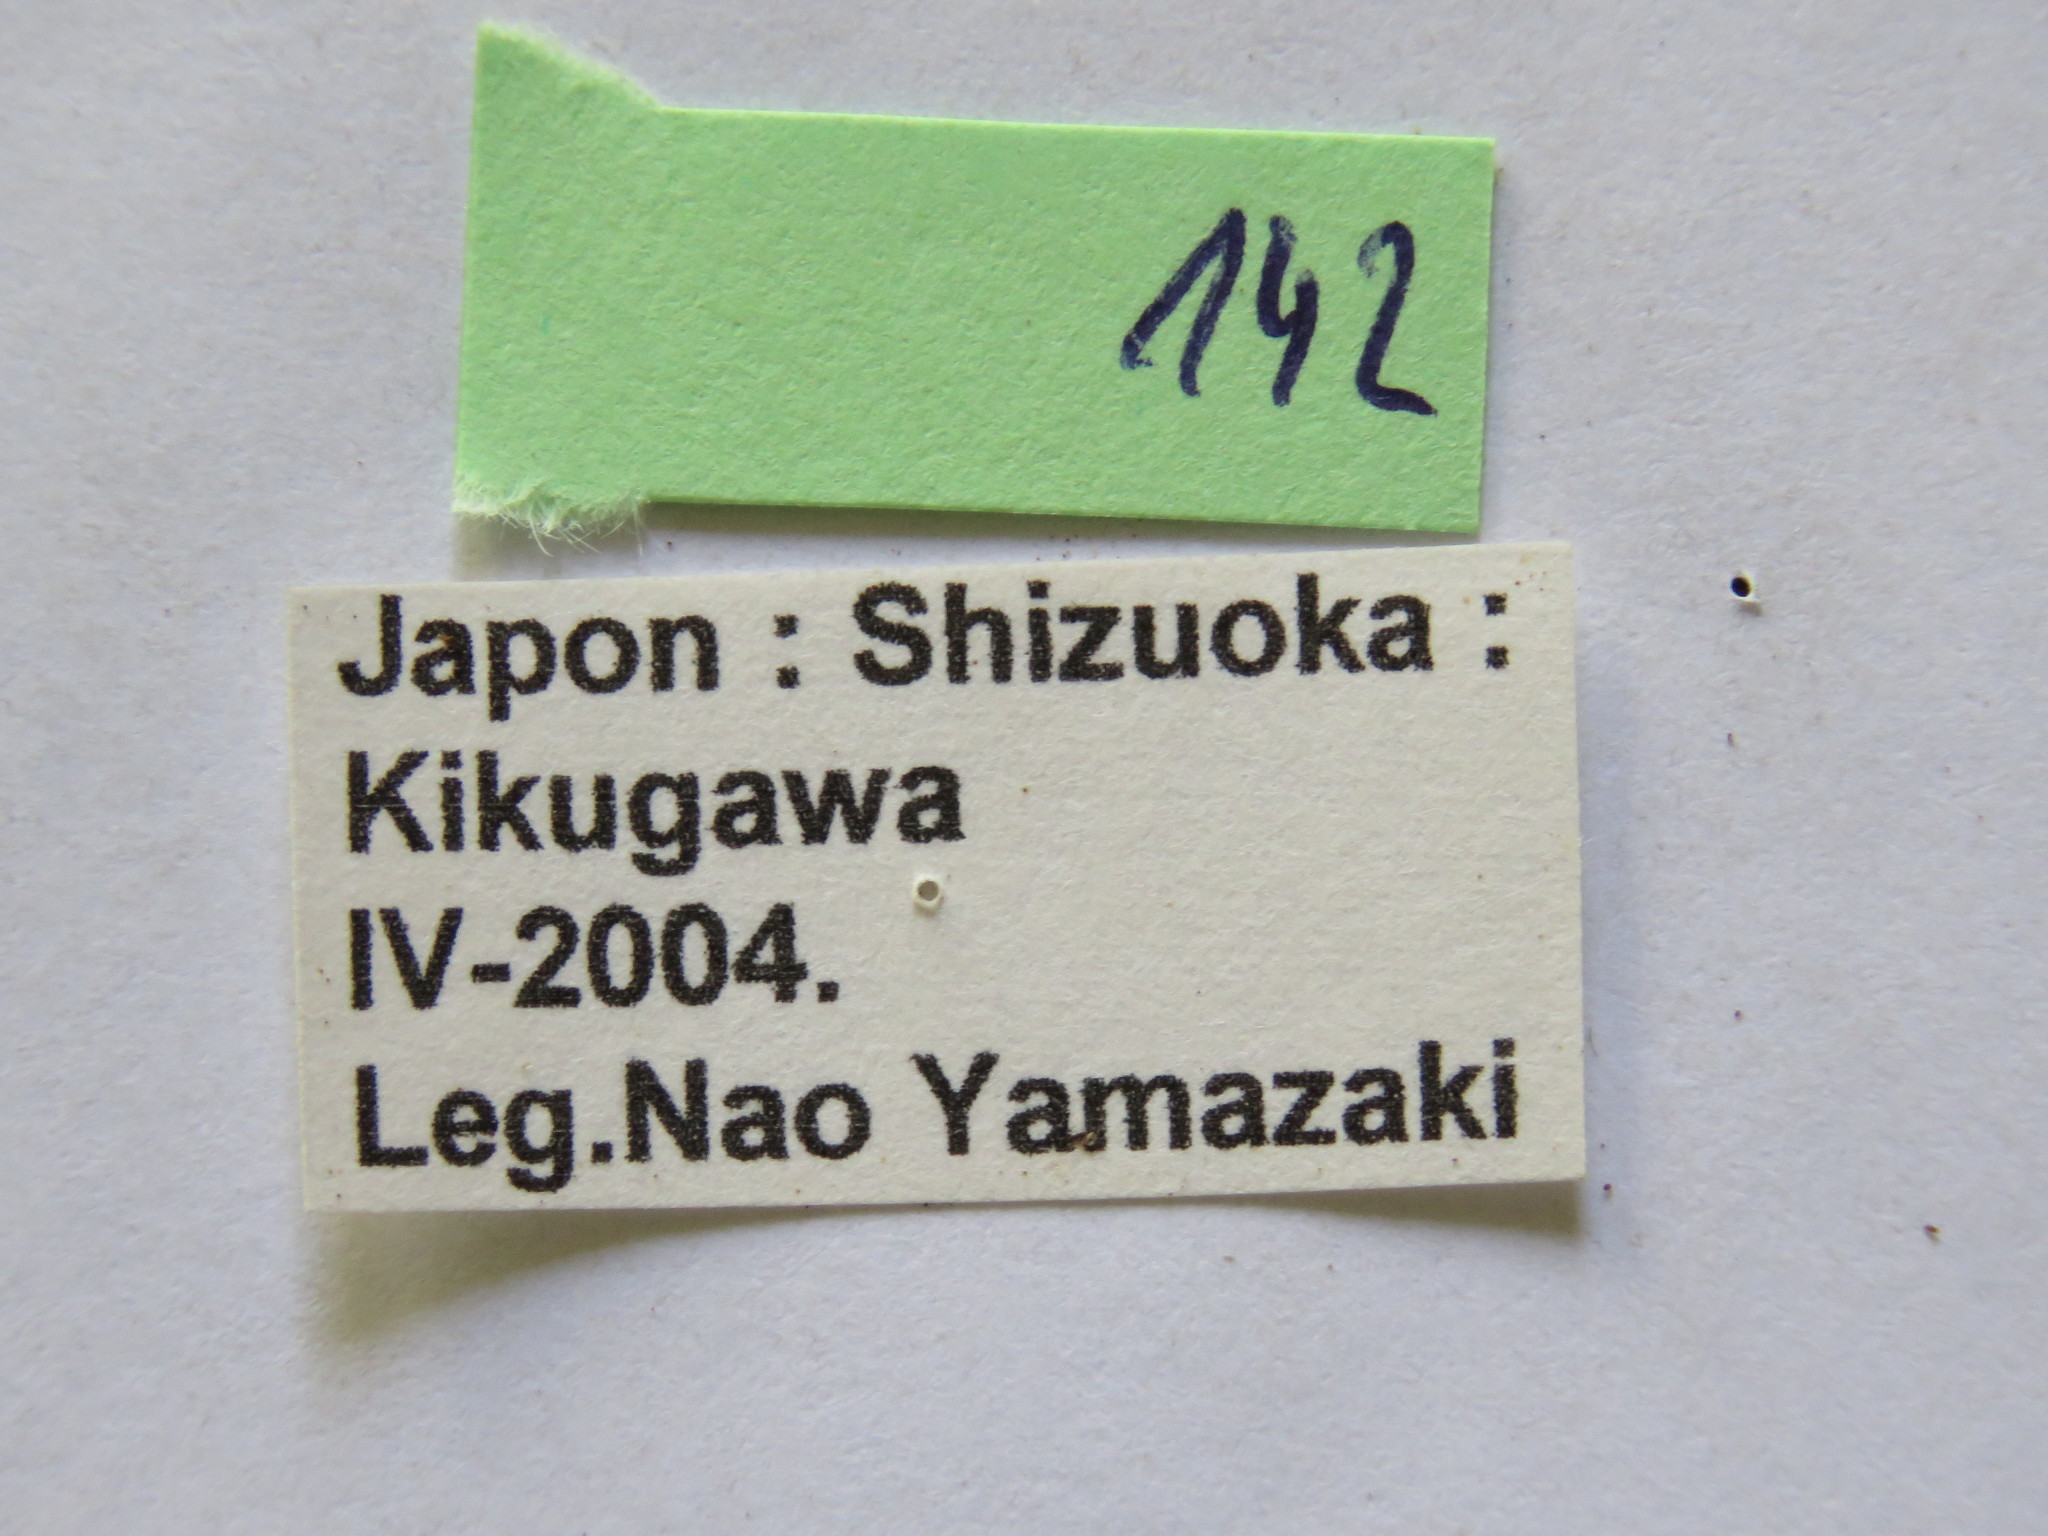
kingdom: Animalia
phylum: Arthropoda
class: Insecta
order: Hemiptera
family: Coreidae
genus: Homoeocerus
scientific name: Homoeocerus unipunctatus
